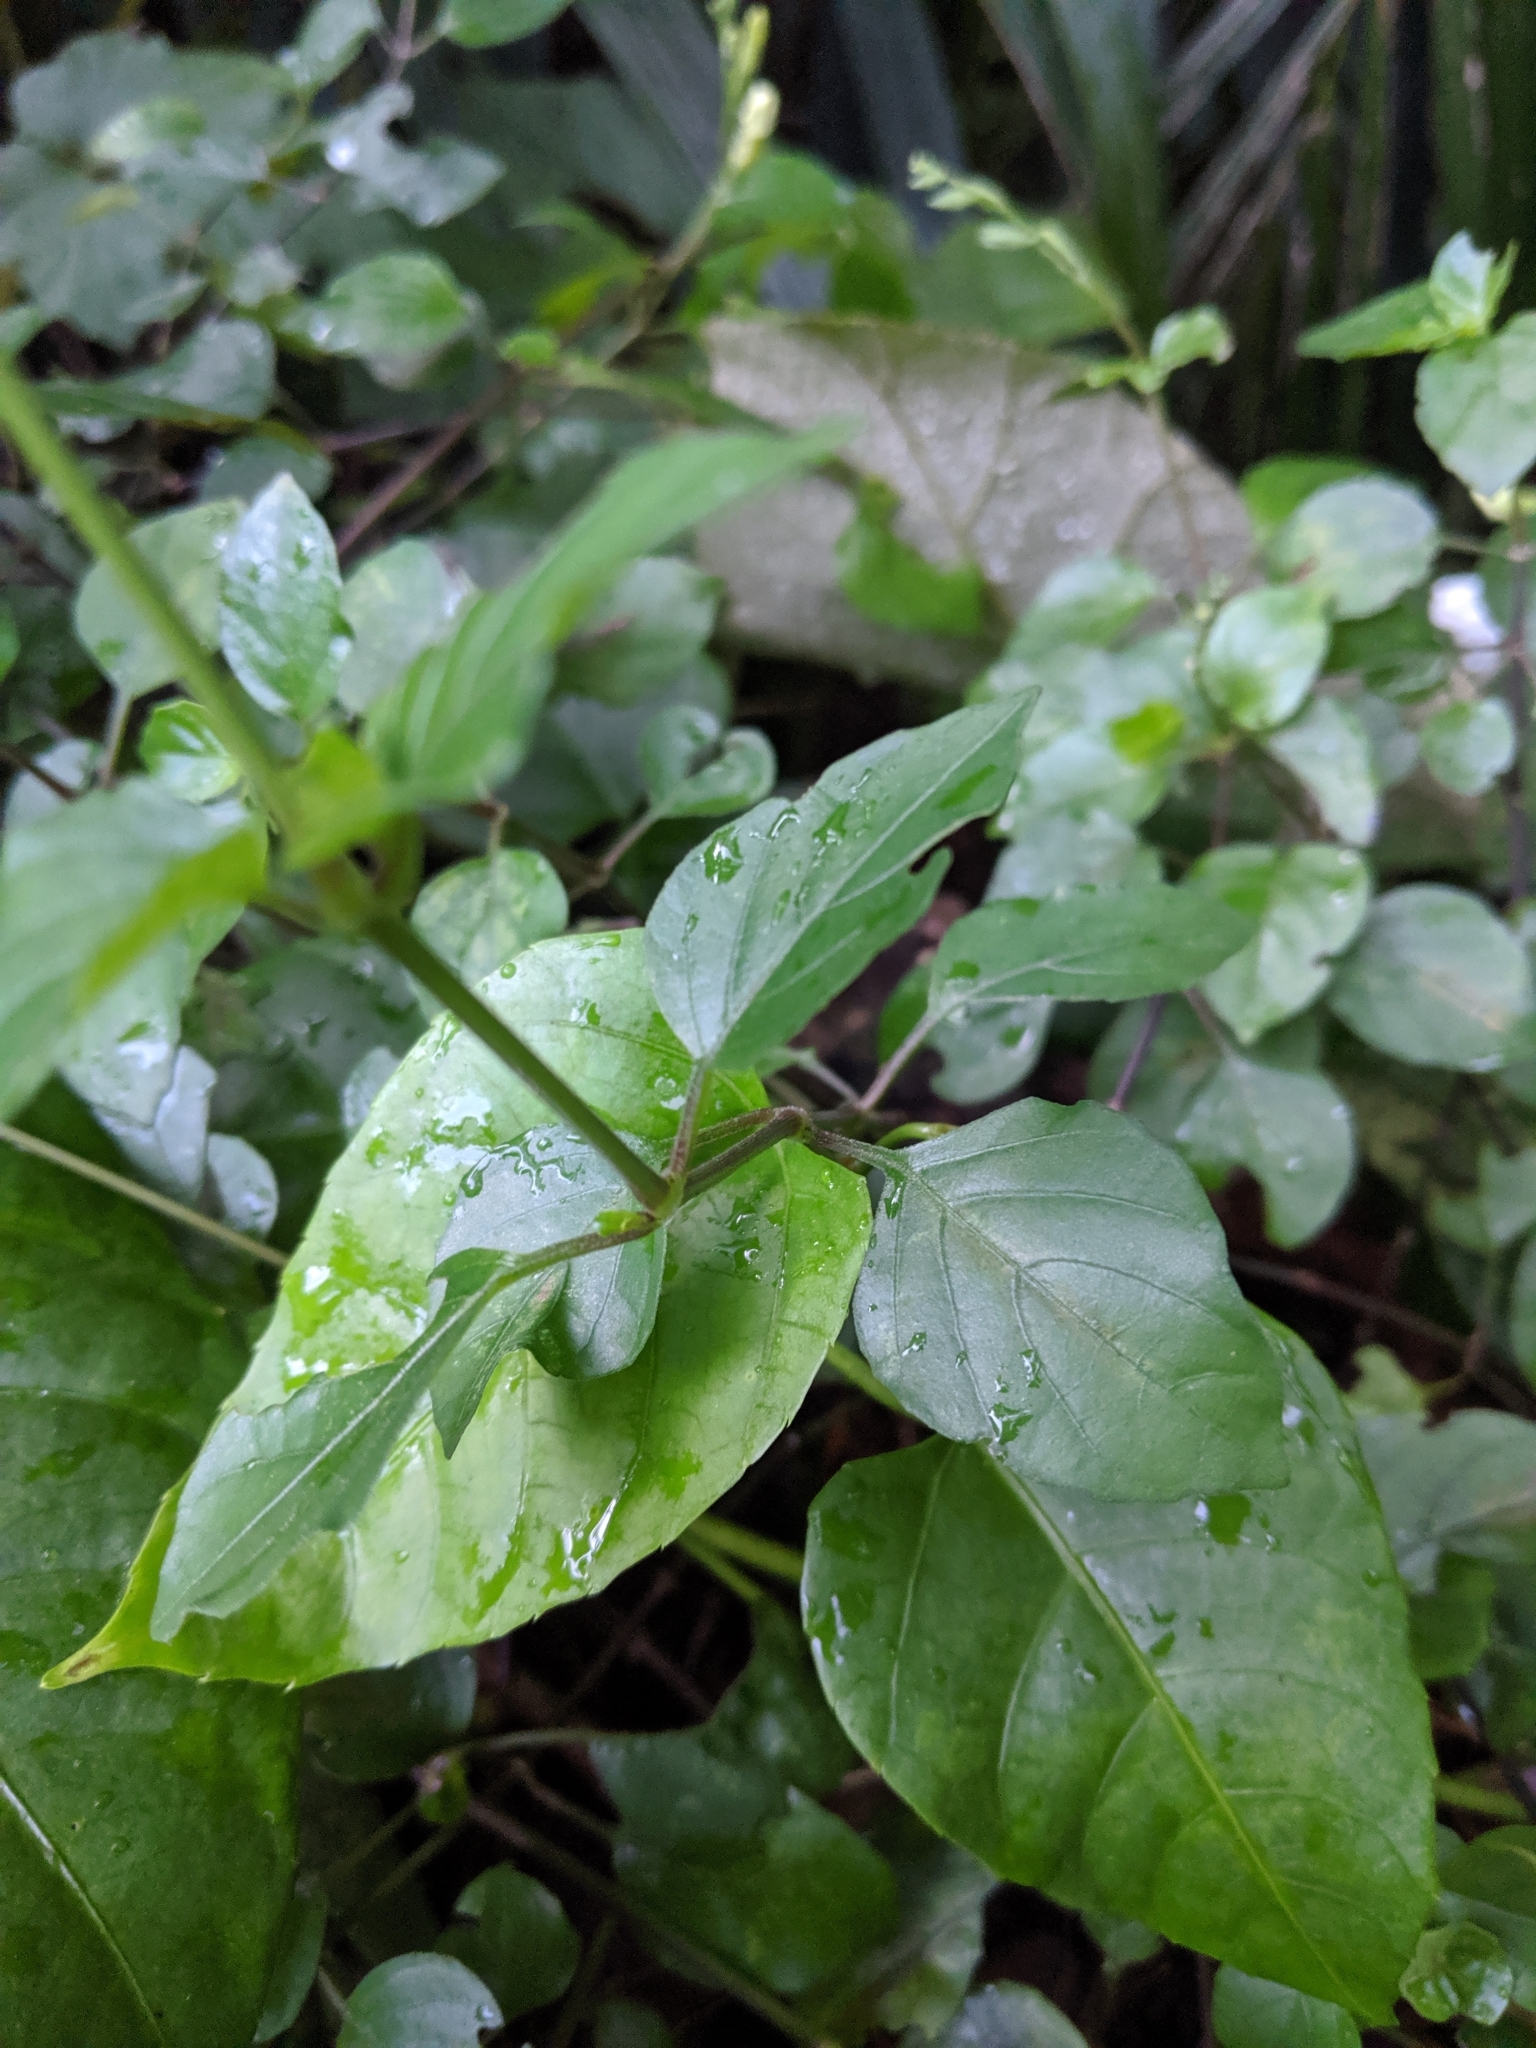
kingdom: Plantae
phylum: Tracheophyta
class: Magnoliopsida
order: Lamiales
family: Acanthaceae
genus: Asystasia
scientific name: Asystasia gangetica
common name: Chinese violet
